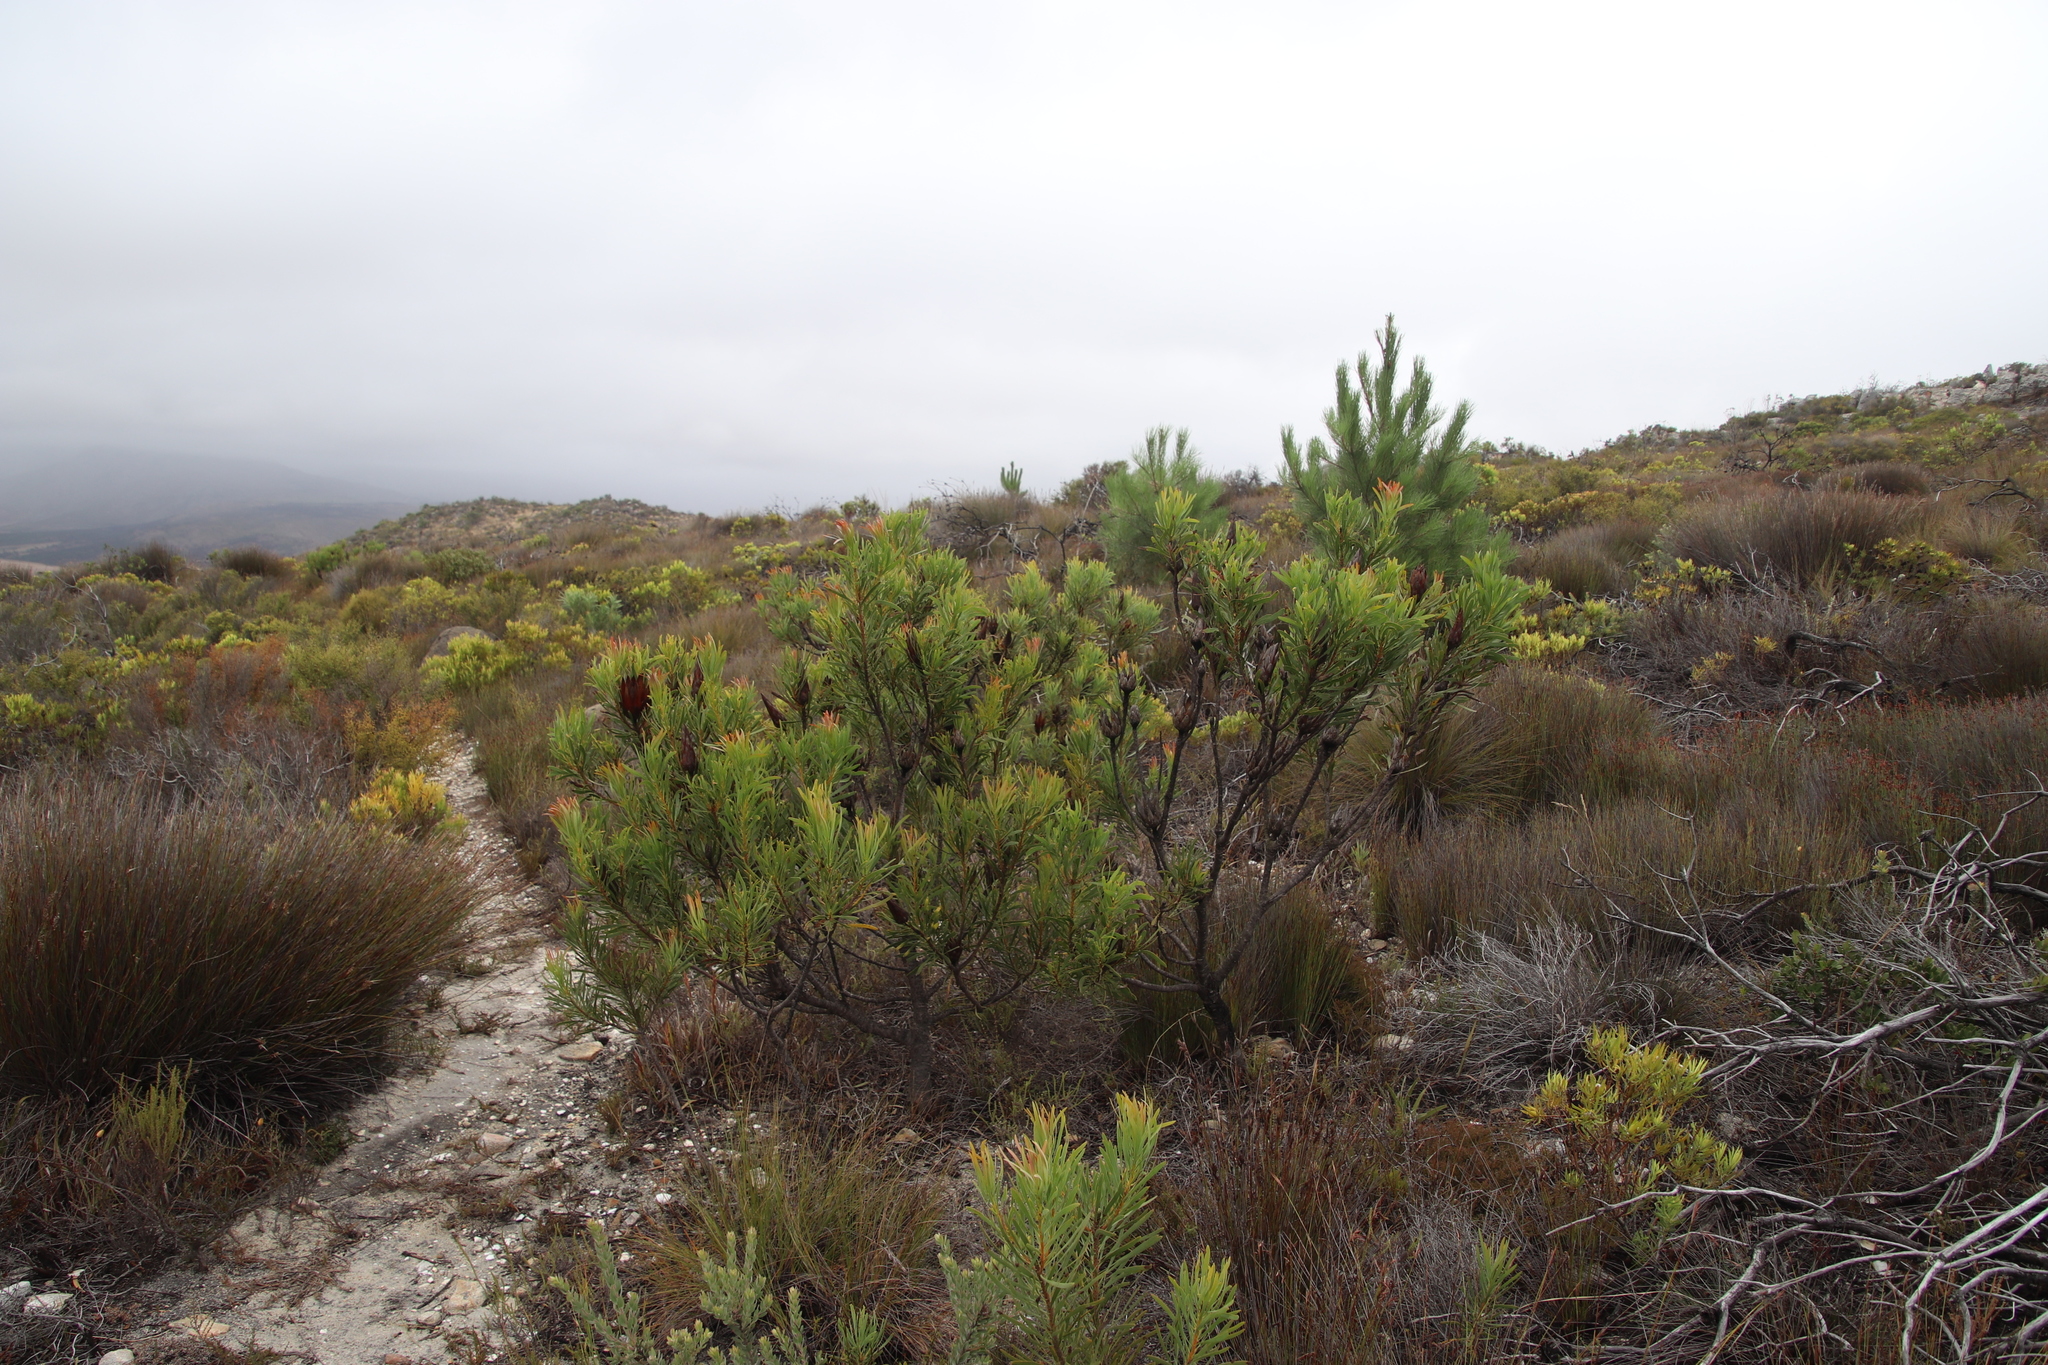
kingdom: Plantae
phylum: Tracheophyta
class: Magnoliopsida
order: Proteales
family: Proteaceae
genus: Protea
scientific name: Protea repens
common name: Sugarbush
